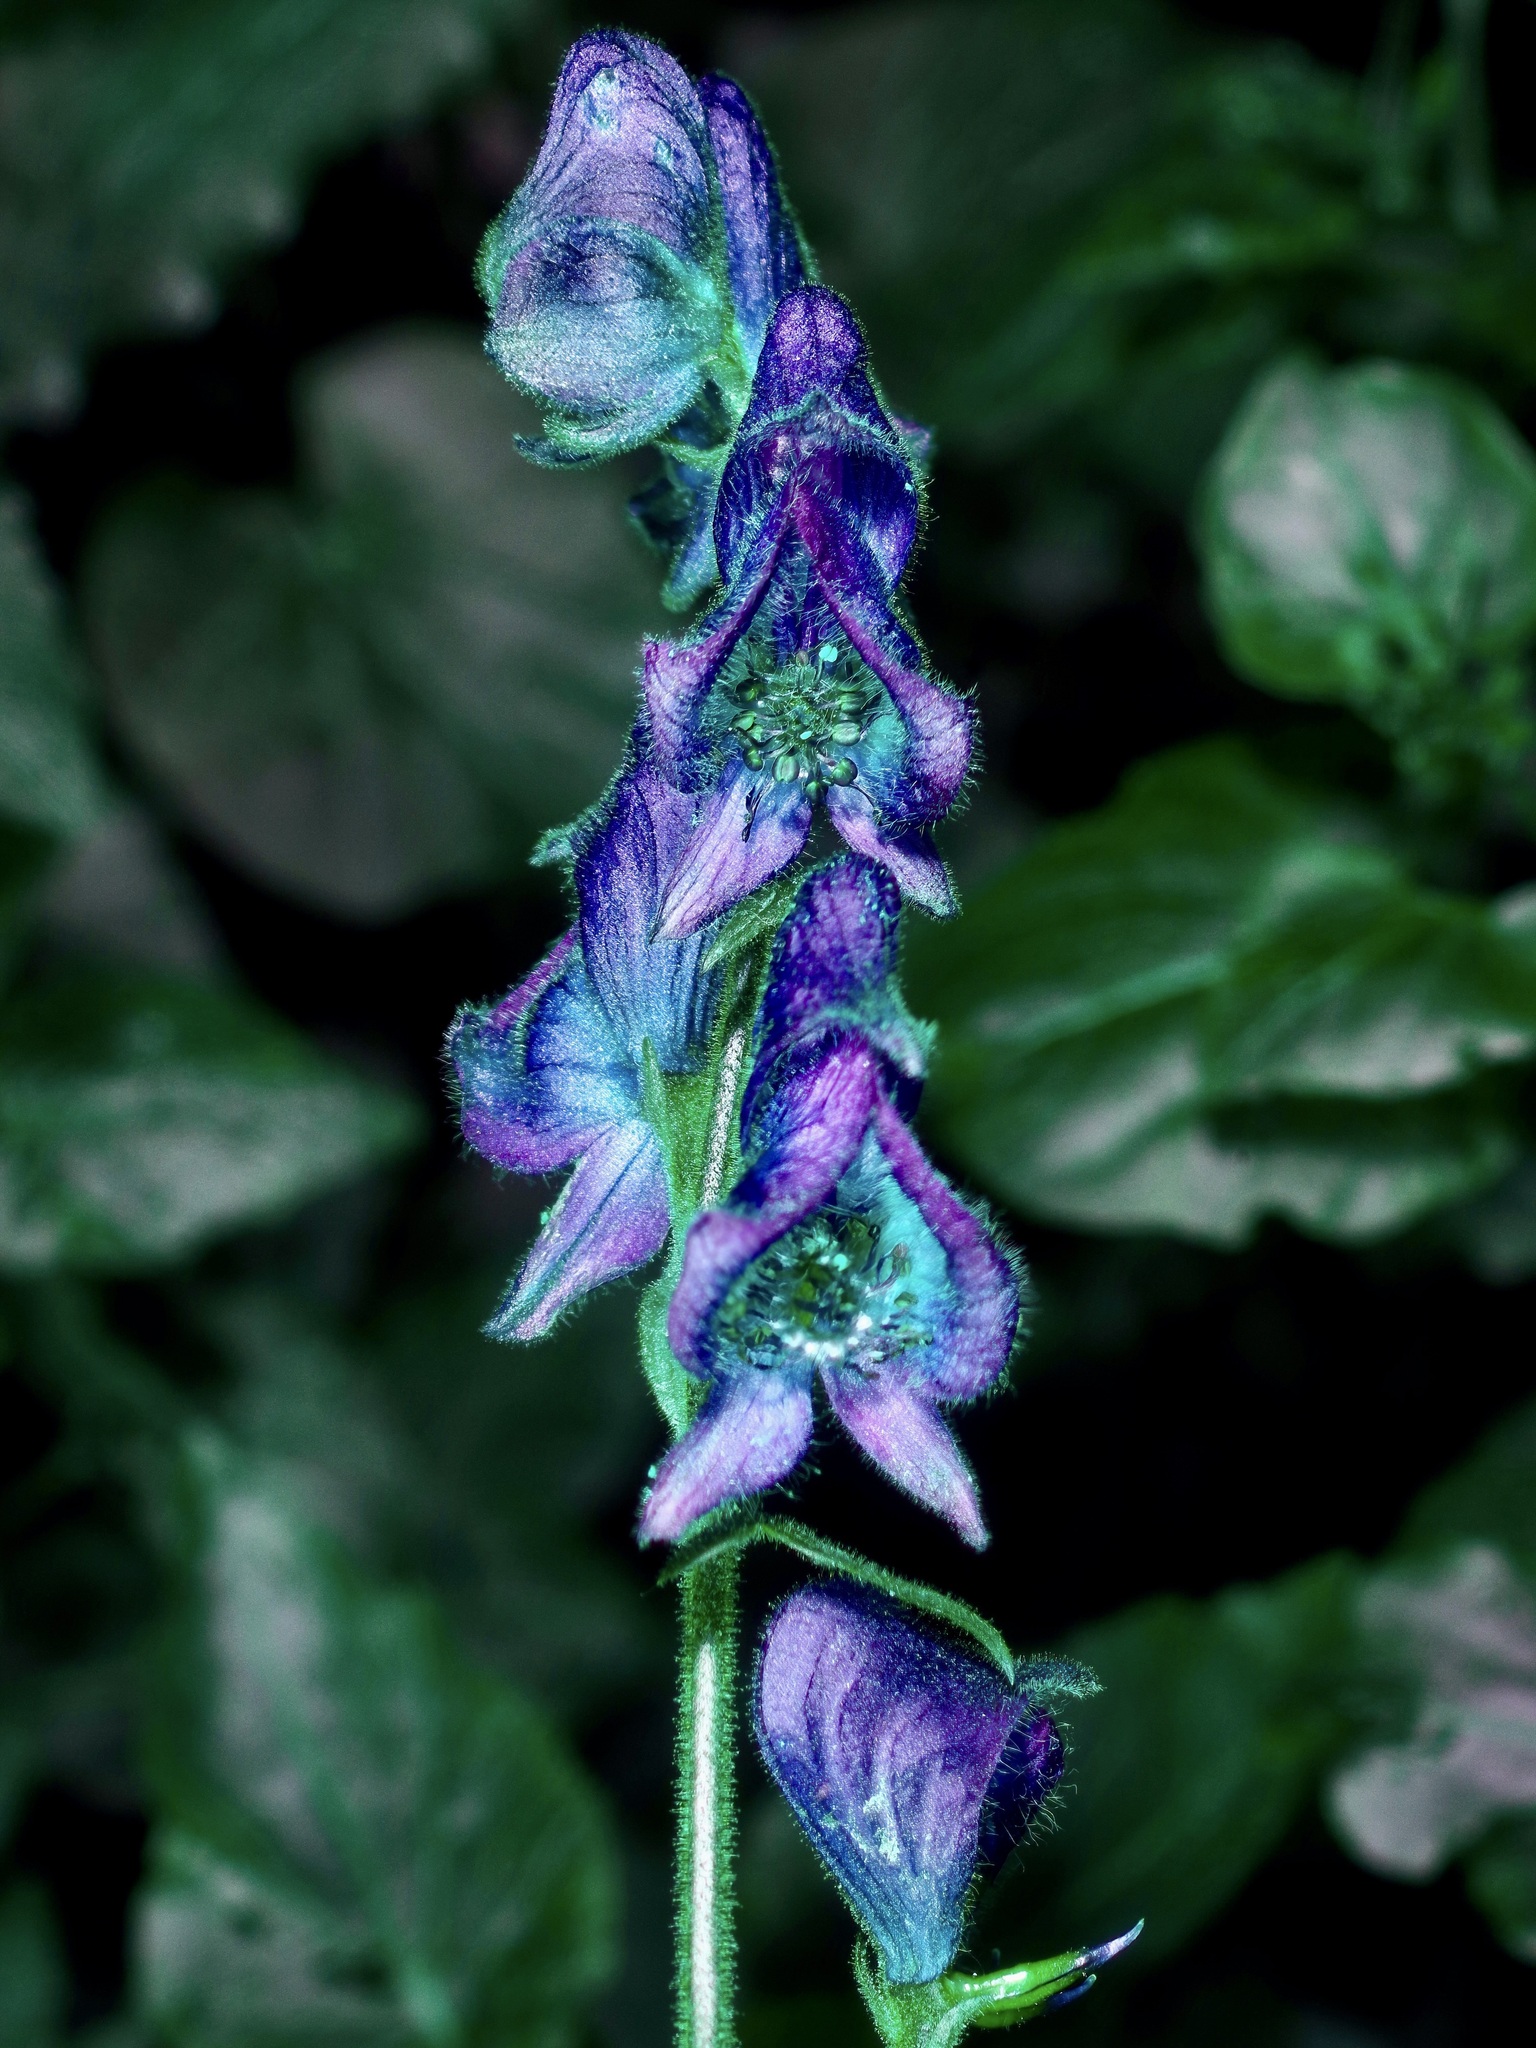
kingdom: Plantae
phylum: Tracheophyta
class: Magnoliopsida
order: Ranunculales
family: Ranunculaceae
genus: Aconitum
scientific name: Aconitum columbianum
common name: Columbia aconite
